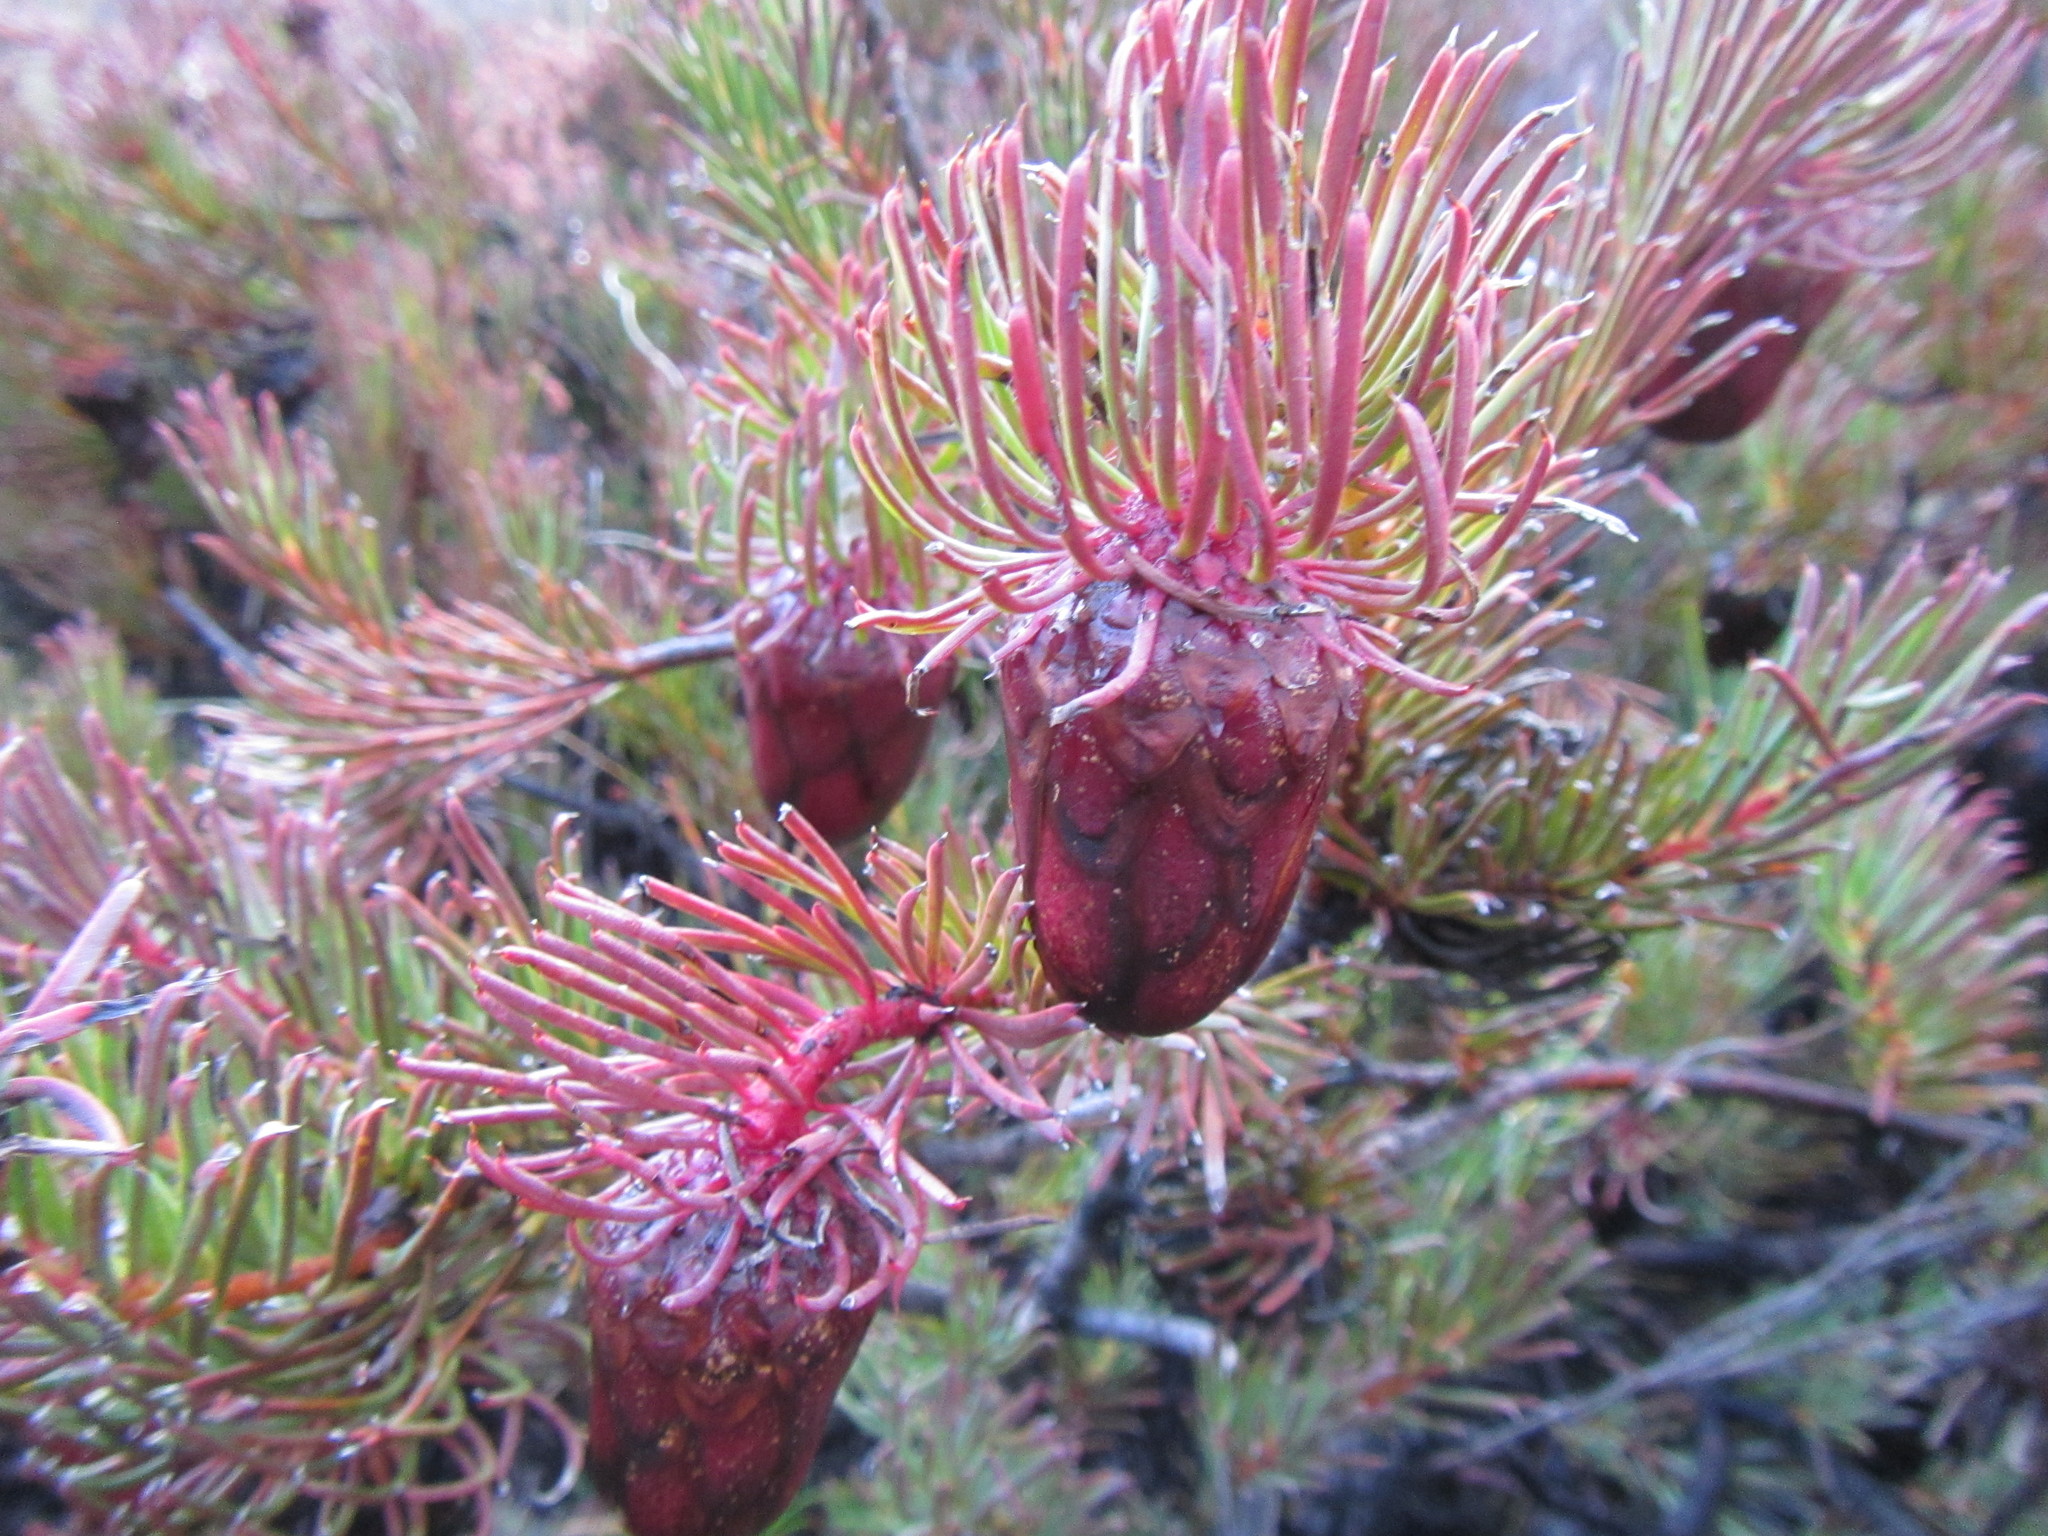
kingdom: Plantae
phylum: Tracheophyta
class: Magnoliopsida
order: Proteales
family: Proteaceae
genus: Protea
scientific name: Protea witzenbergiana
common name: Swan sugarbush
